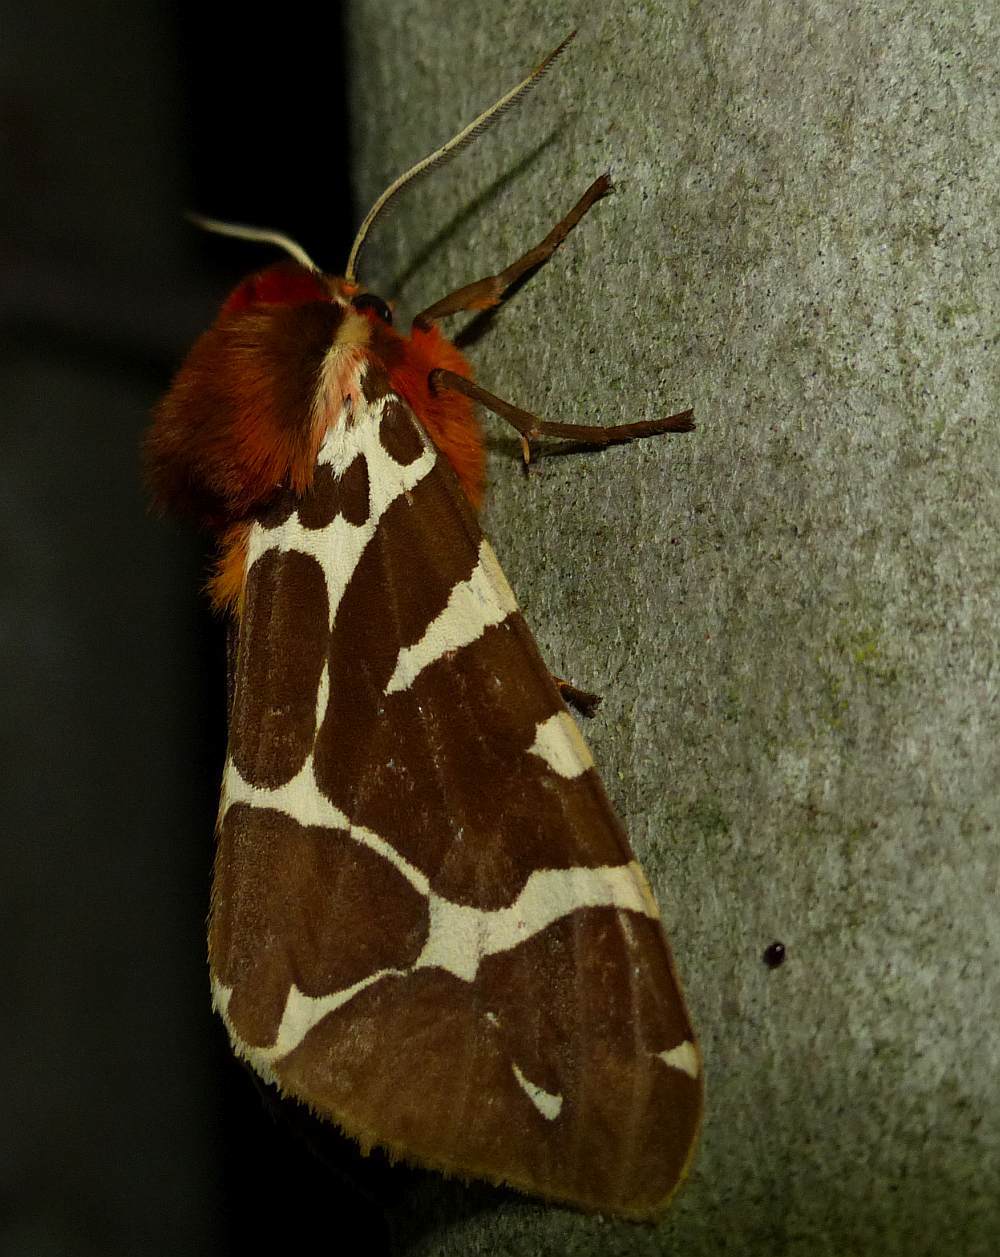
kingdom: Animalia
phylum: Arthropoda
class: Insecta
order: Lepidoptera
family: Erebidae
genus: Arctia
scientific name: Arctia caja
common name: Garden tiger
